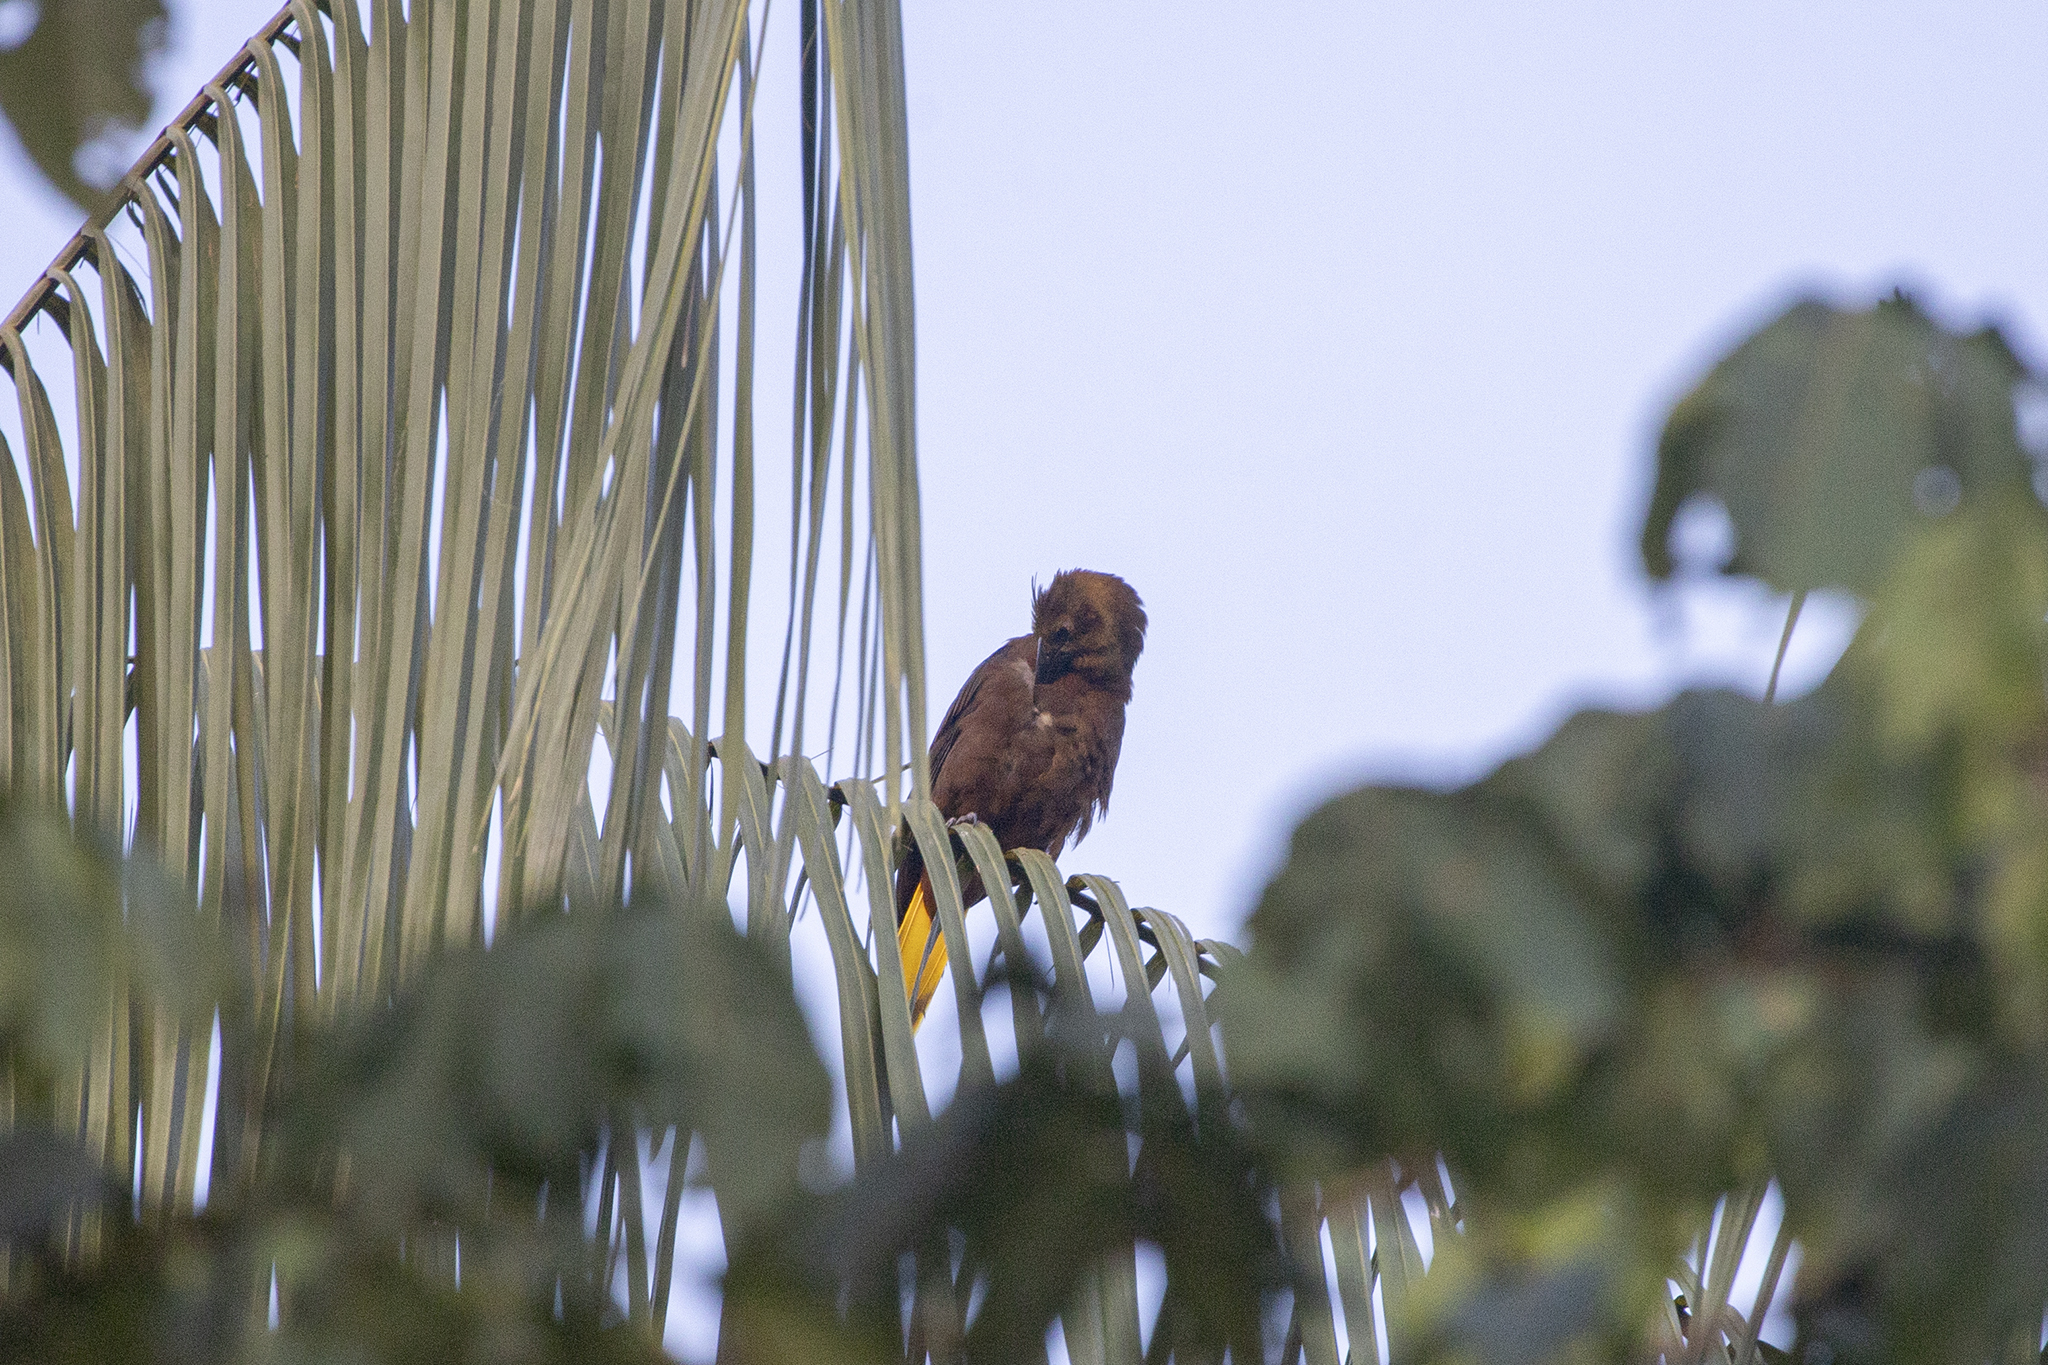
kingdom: Animalia
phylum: Chordata
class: Aves
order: Passeriformes
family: Icteridae
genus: Psarocolius
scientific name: Psarocolius angustifrons
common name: Russet-backed oropendola
